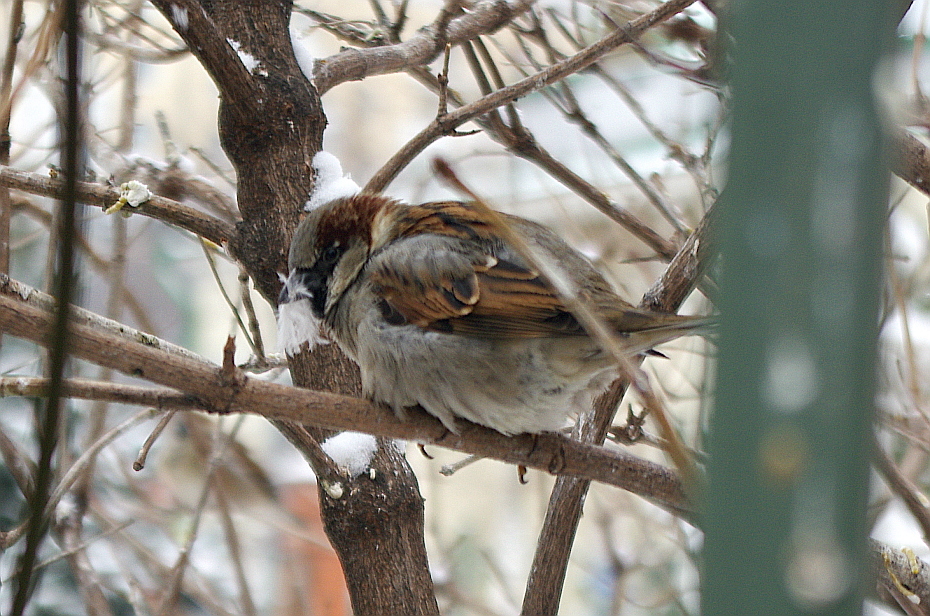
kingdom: Animalia
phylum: Chordata
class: Aves
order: Passeriformes
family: Passeridae
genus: Passer
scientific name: Passer domesticus
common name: House sparrow
